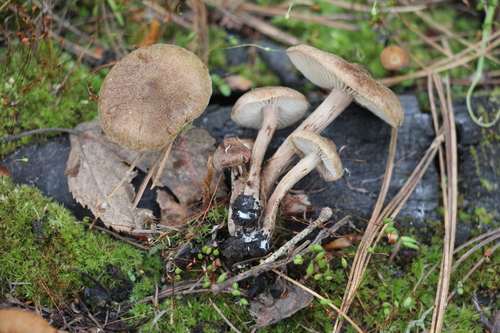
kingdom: Fungi
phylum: Basidiomycota
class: Agaricomycetes
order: Agaricales
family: Inocybaceae
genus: Inocybe
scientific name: Inocybe lacera
